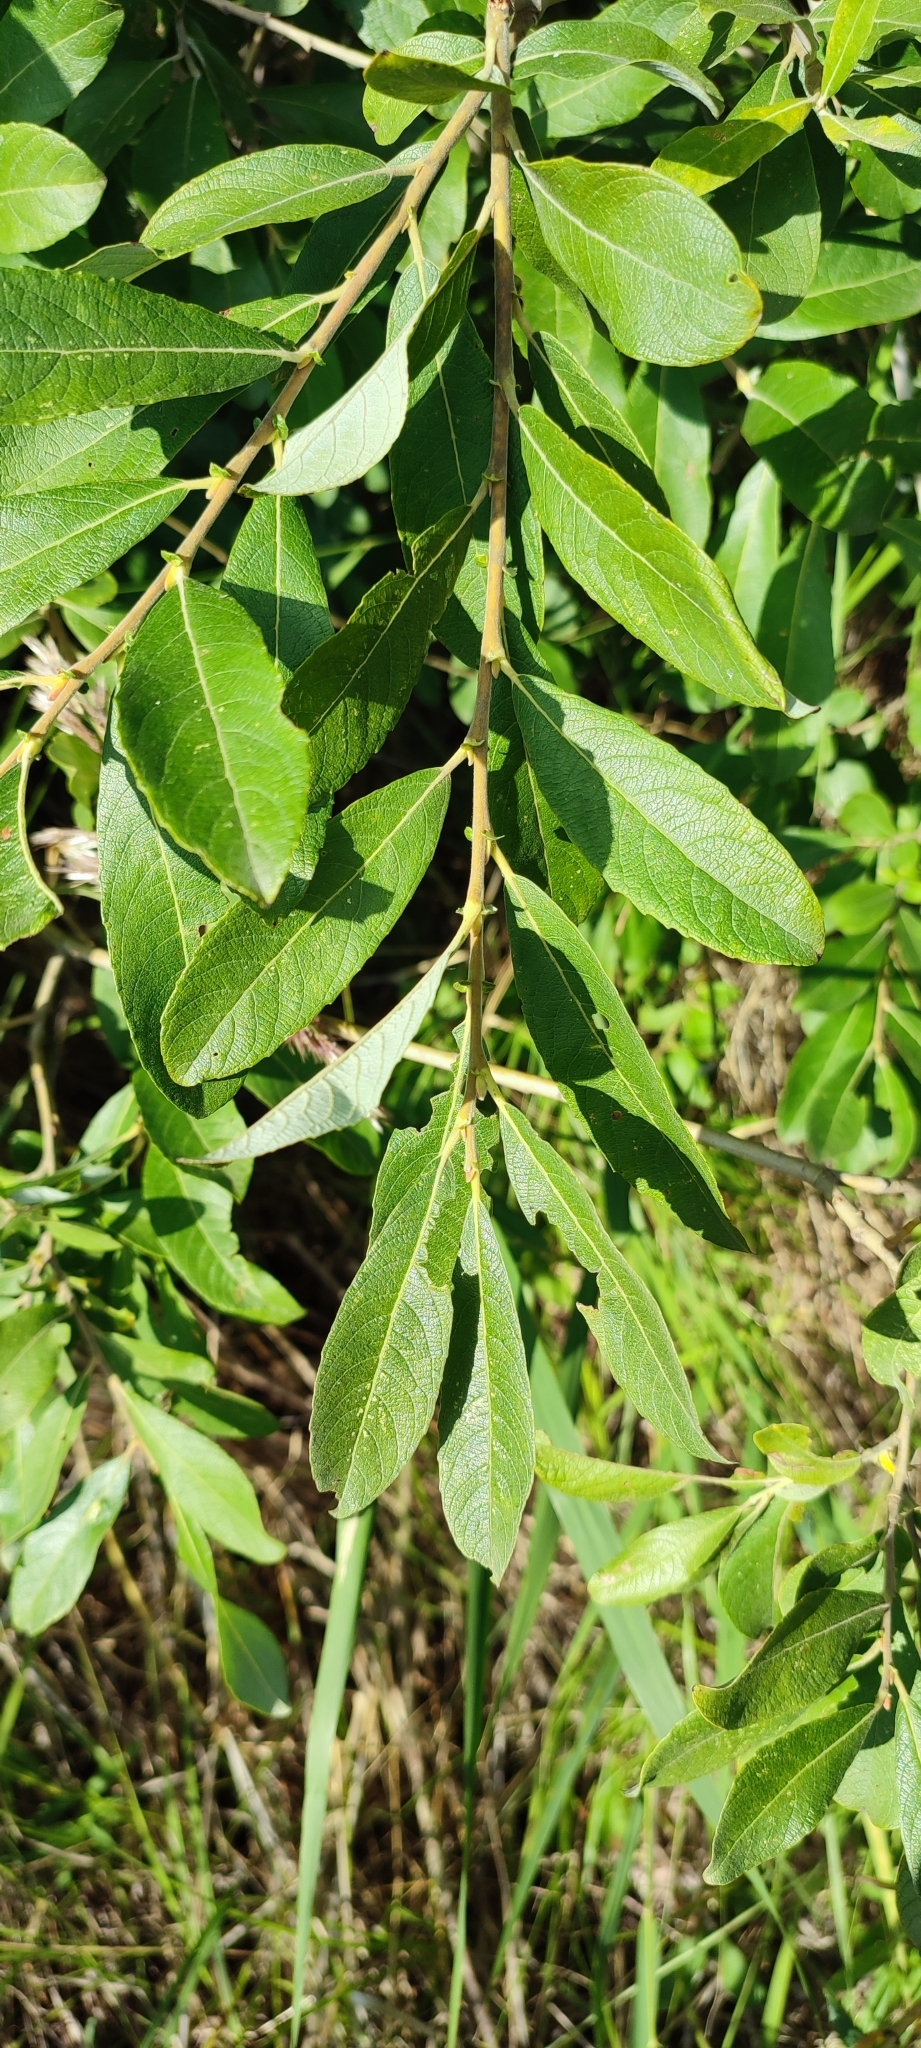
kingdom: Plantae
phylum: Tracheophyta
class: Magnoliopsida
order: Malpighiales
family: Salicaceae
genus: Salix
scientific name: Salix cinerea
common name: Common sallow
